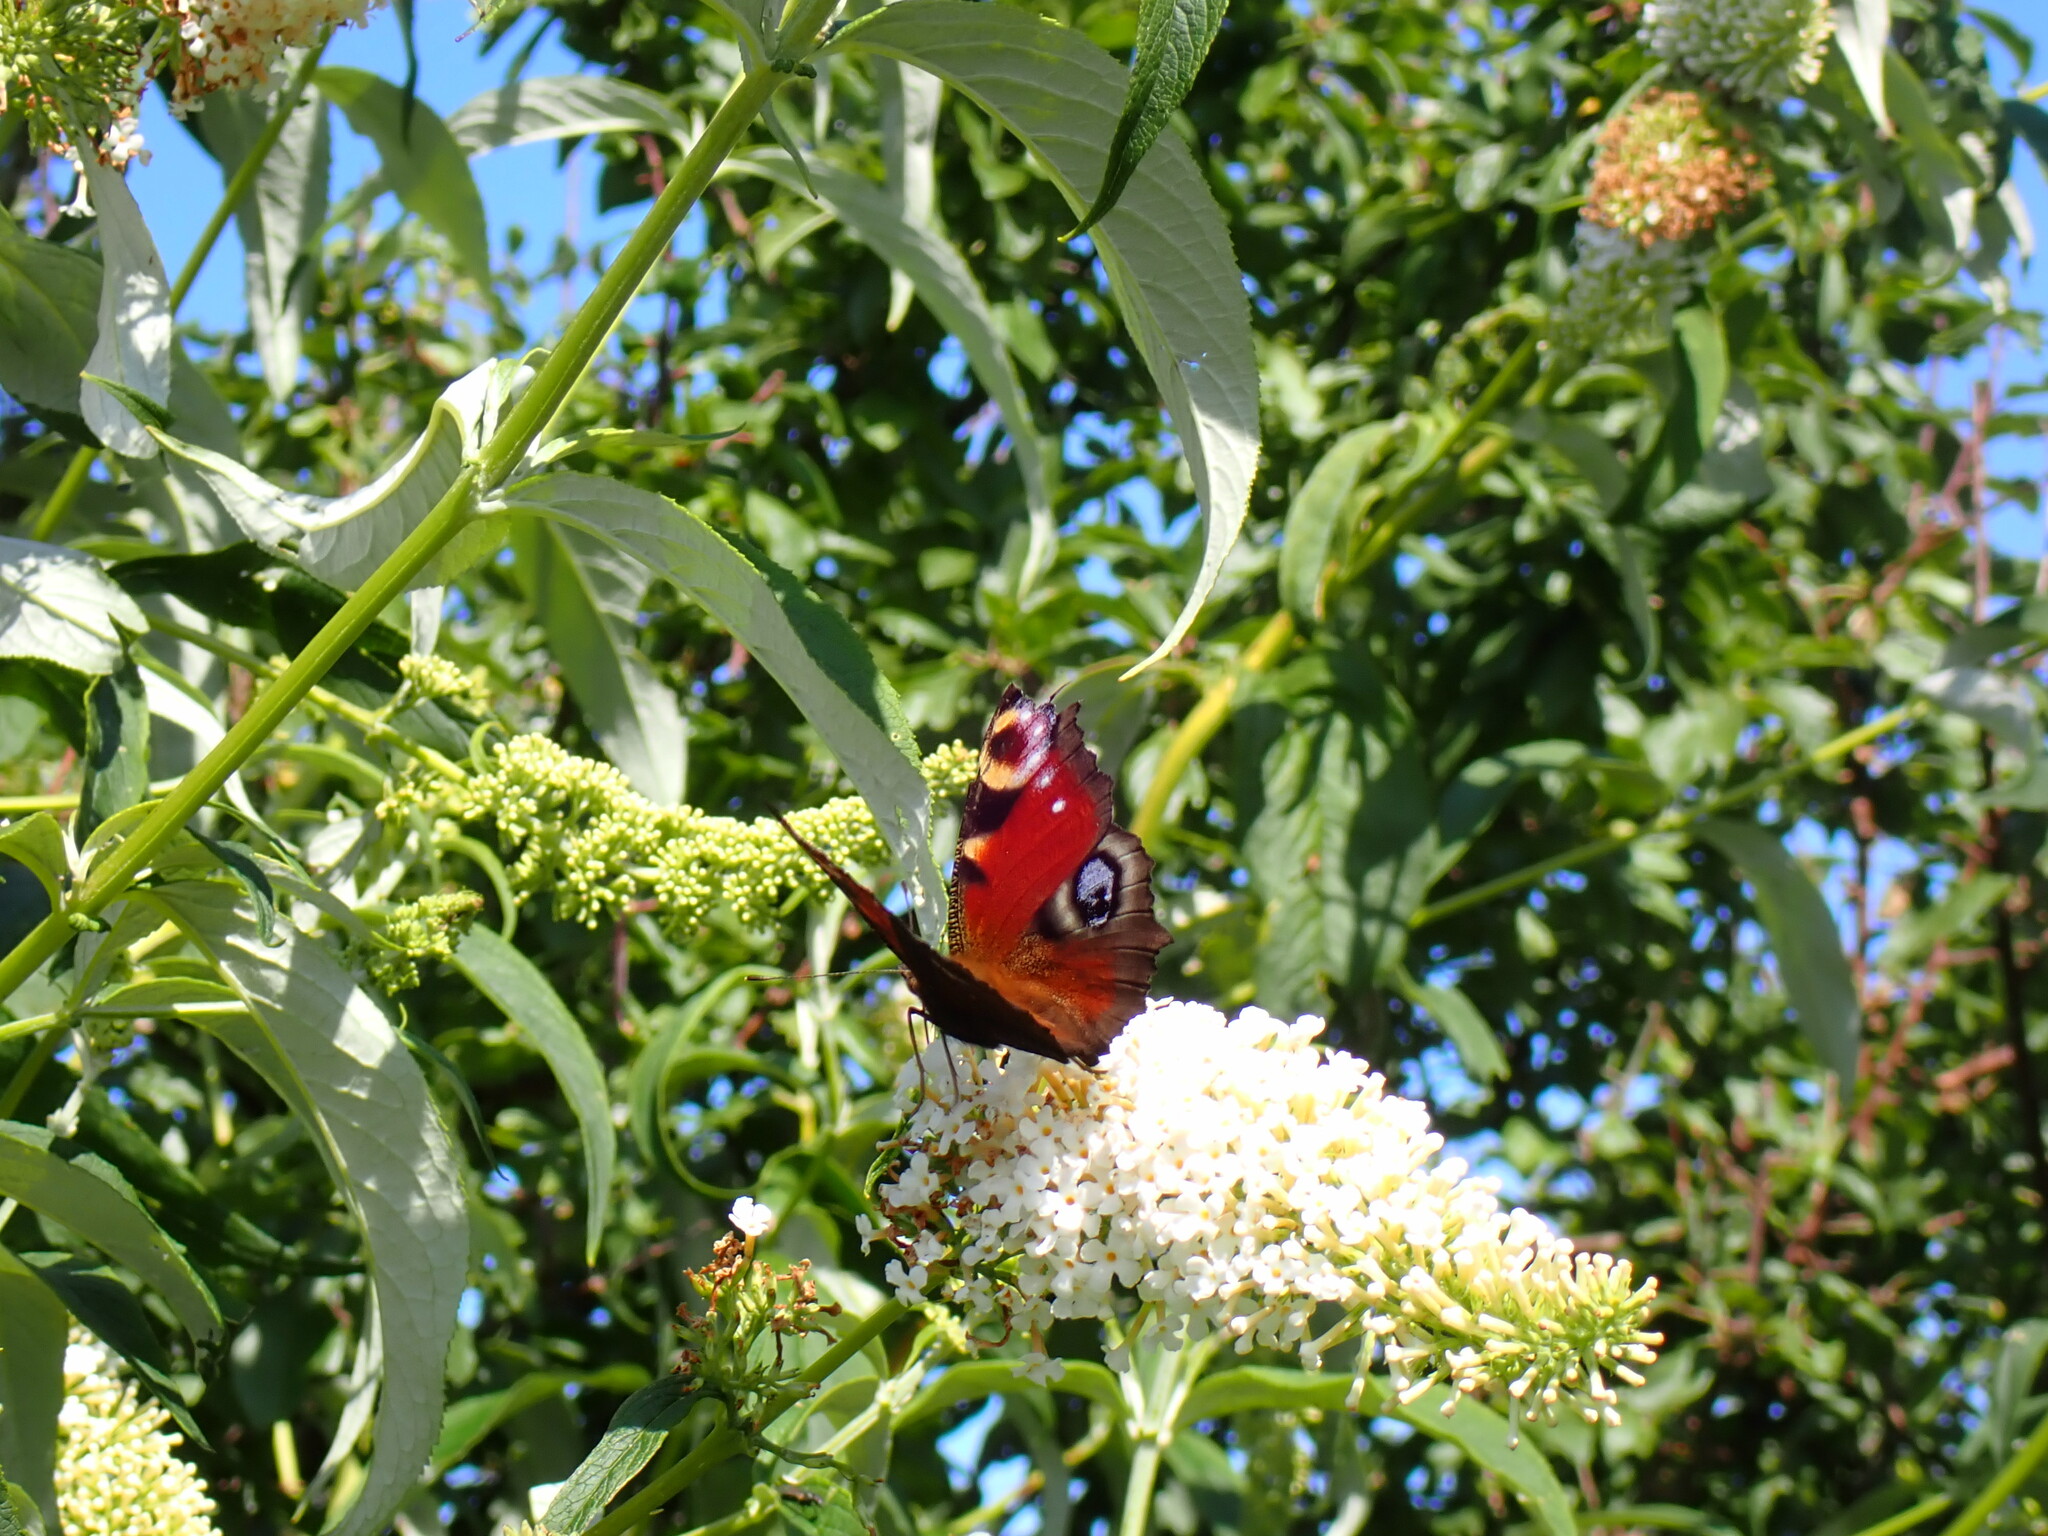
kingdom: Animalia
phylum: Arthropoda
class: Insecta
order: Lepidoptera
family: Nymphalidae
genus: Aglais
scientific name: Aglais io
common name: Peacock
